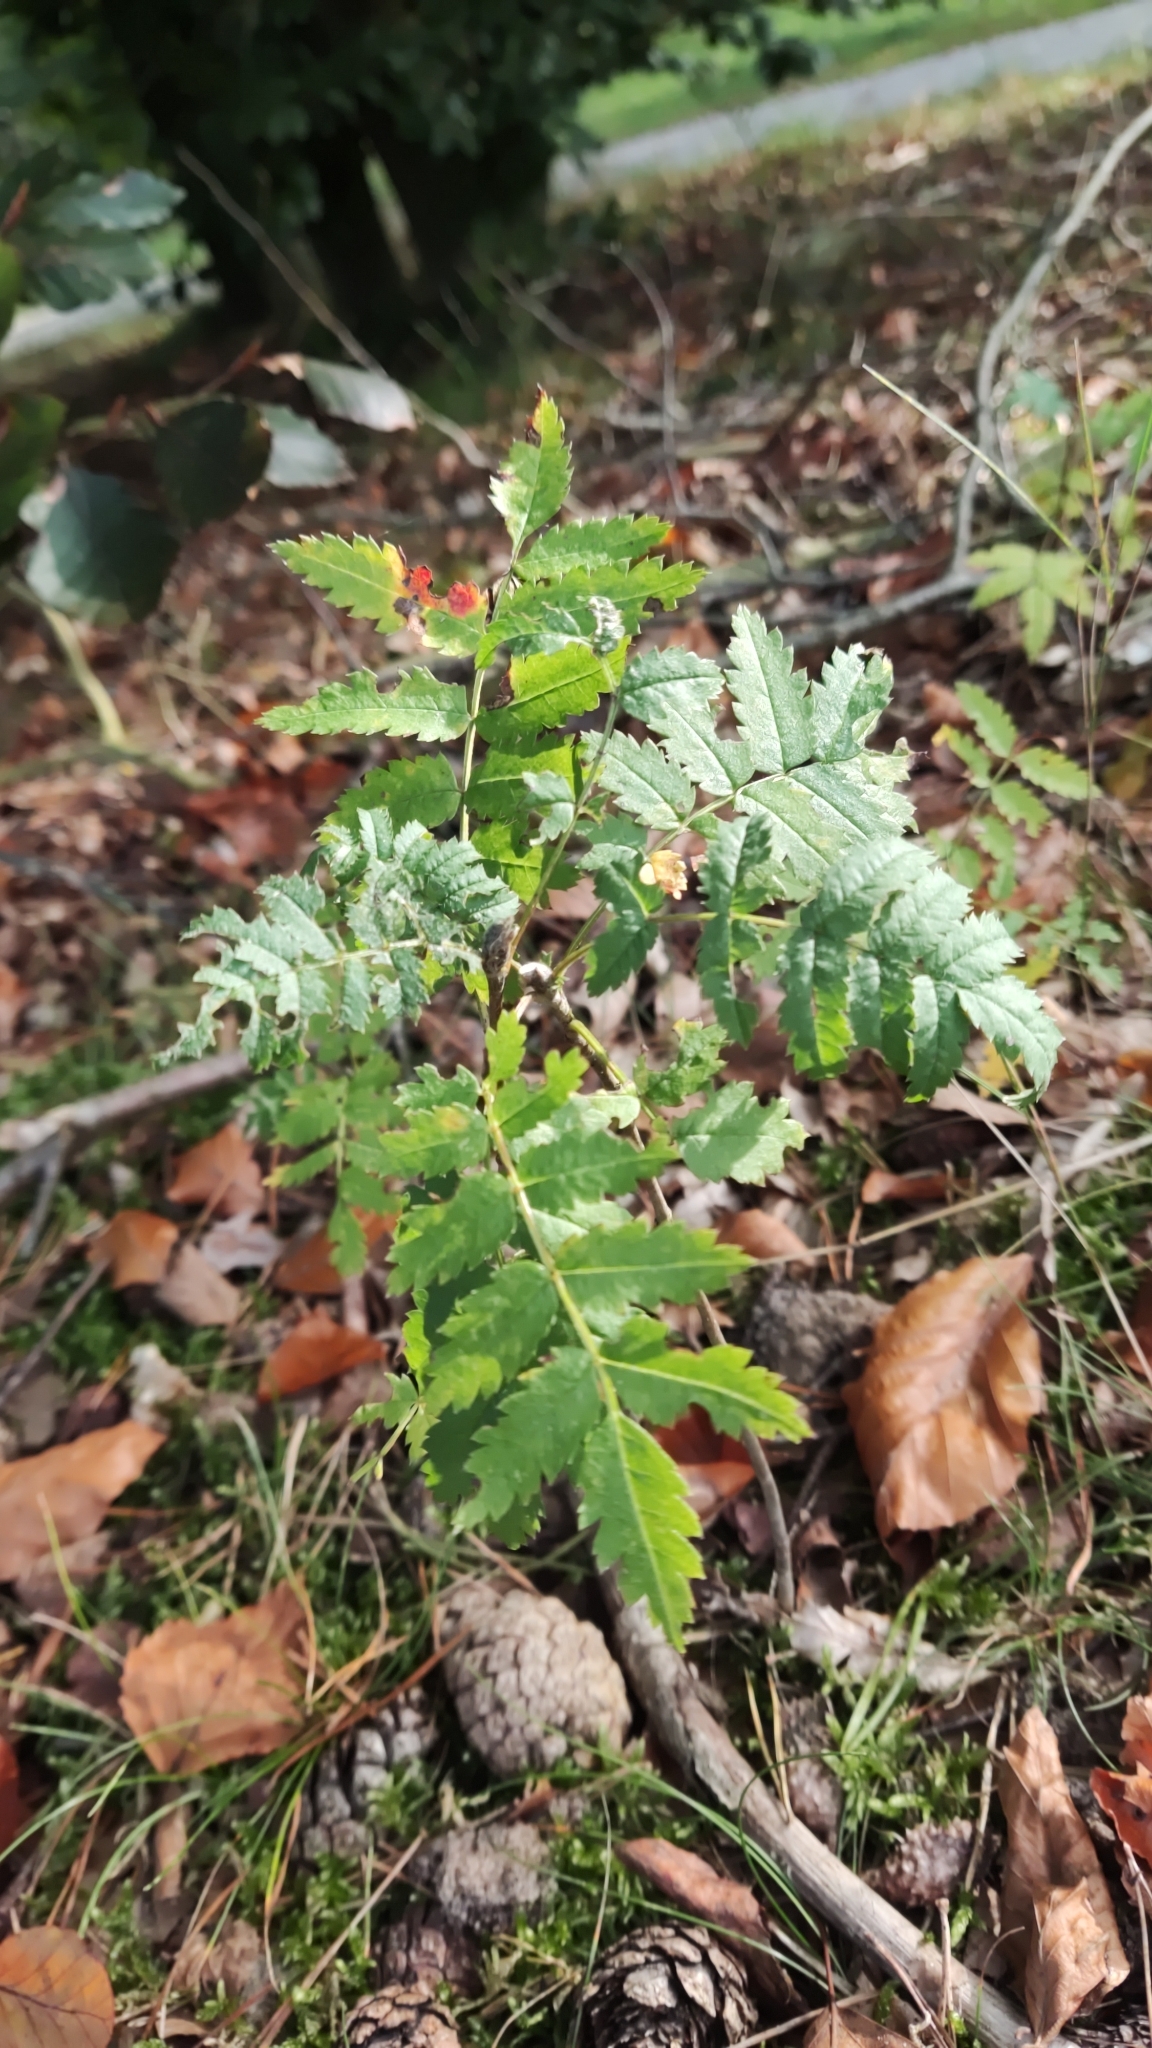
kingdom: Plantae
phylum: Tracheophyta
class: Magnoliopsida
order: Rosales
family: Rosaceae
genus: Sorbus
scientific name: Sorbus aucuparia
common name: Rowan
